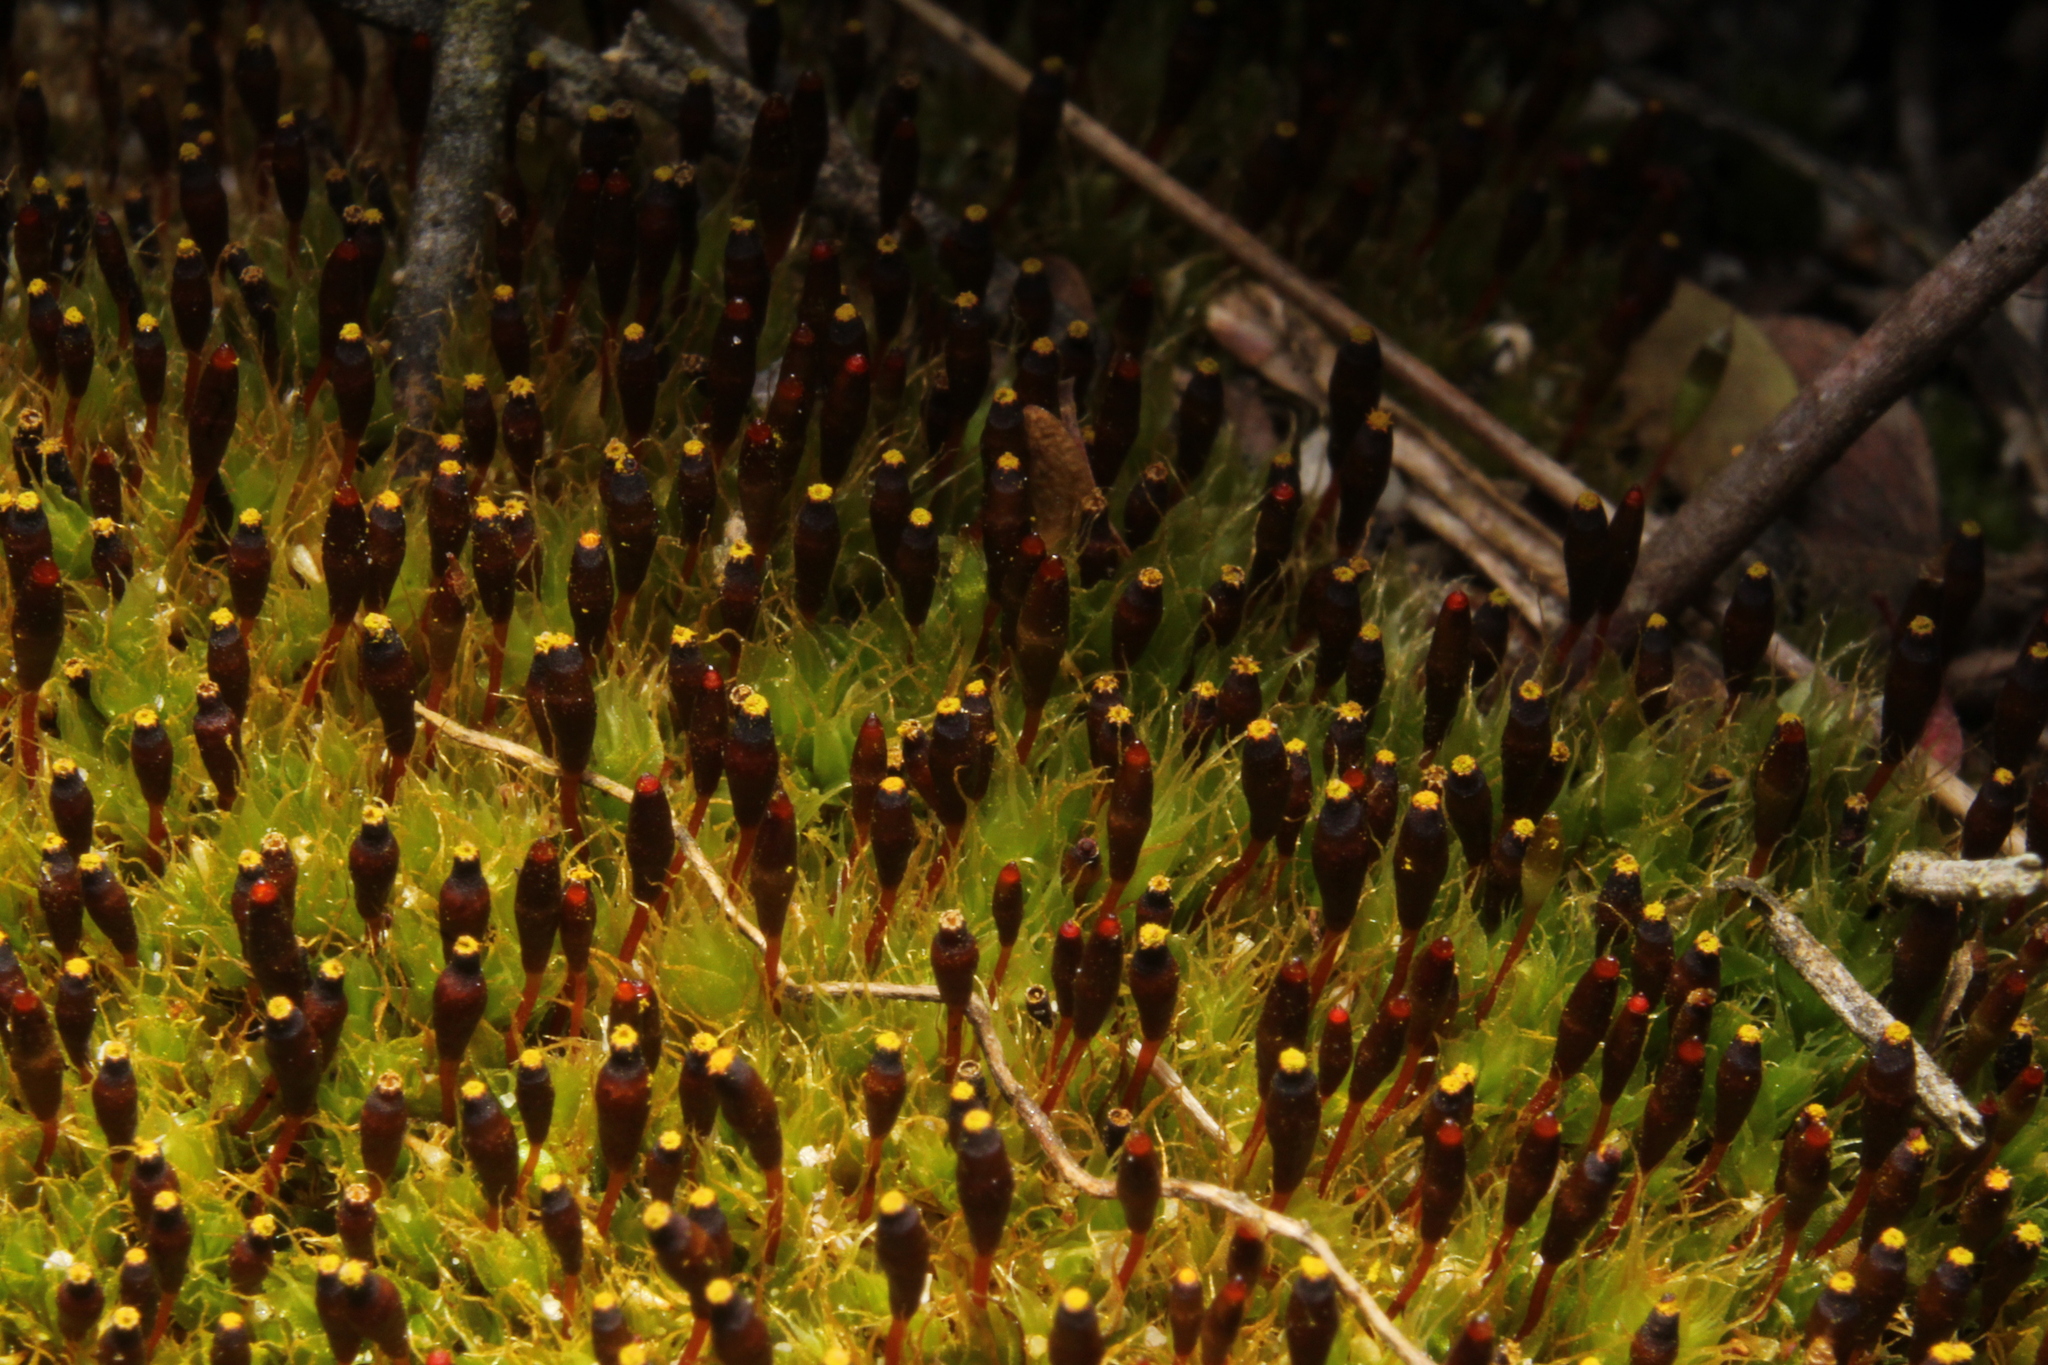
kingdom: Plantae
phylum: Bryophyta
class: Bryopsida
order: Splachnales
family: Splachnaceae
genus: Tayloria
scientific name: Tayloria octoblephara
